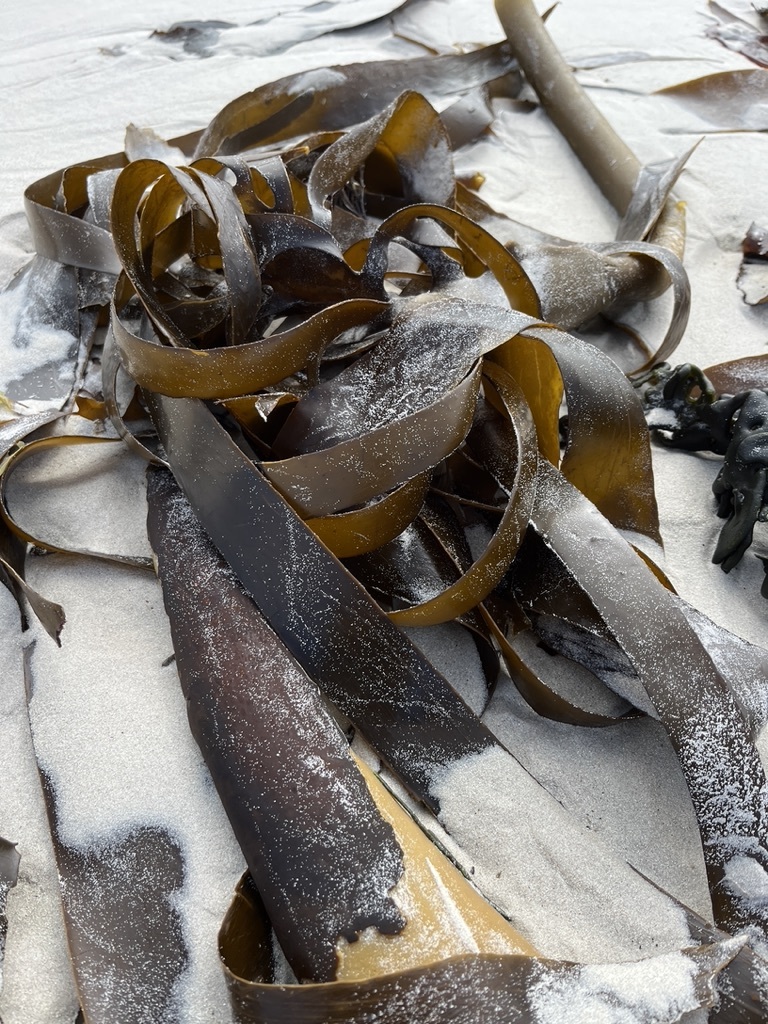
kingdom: Chromista
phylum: Ochrophyta
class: Phaeophyceae
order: Laminariales
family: Lessoniaceae
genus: Ecklonia
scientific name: Ecklonia
